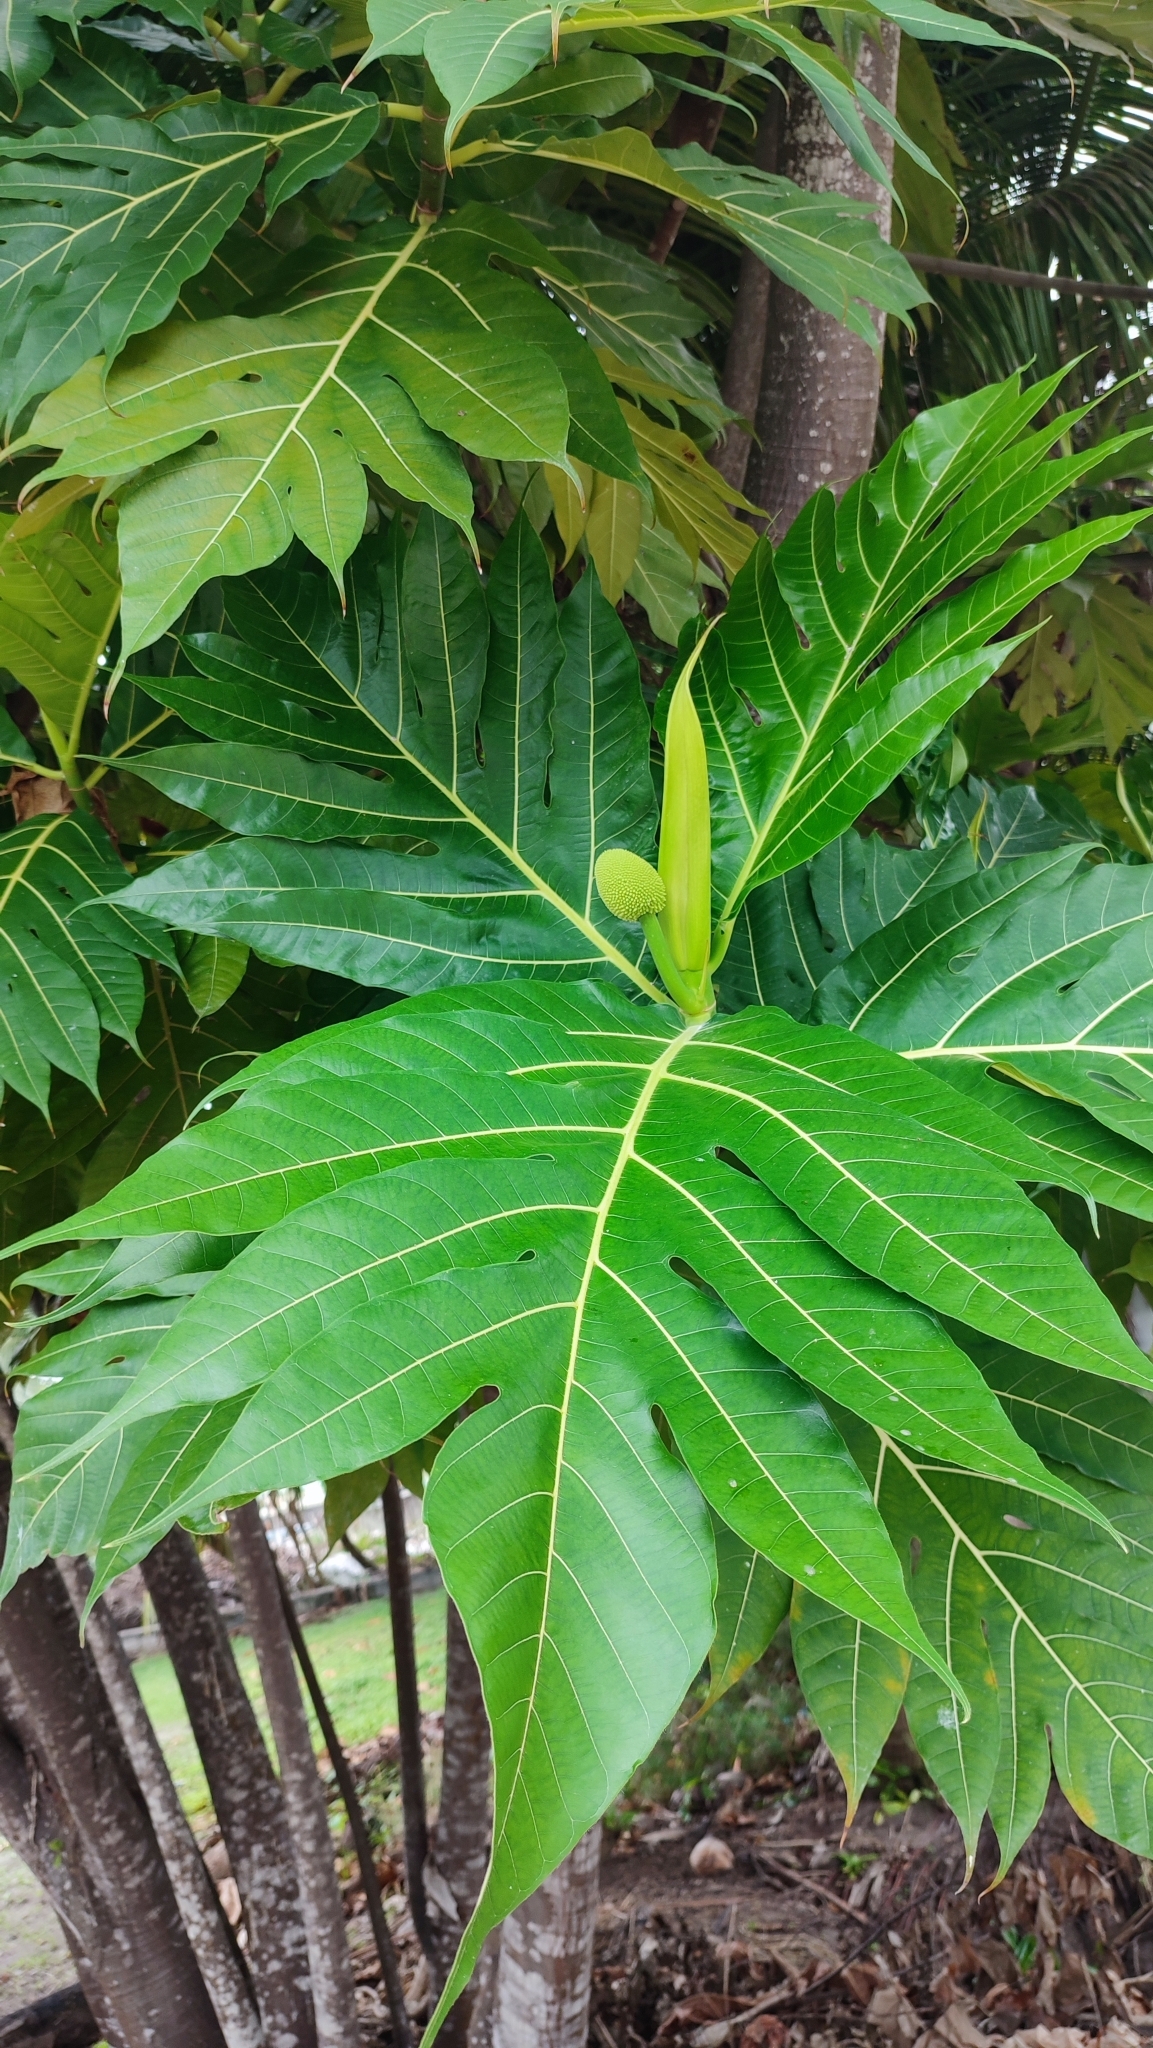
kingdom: Plantae
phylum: Tracheophyta
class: Magnoliopsida
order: Rosales
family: Moraceae
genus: Artocarpus
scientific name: Artocarpus altilis
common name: Breadfruit
